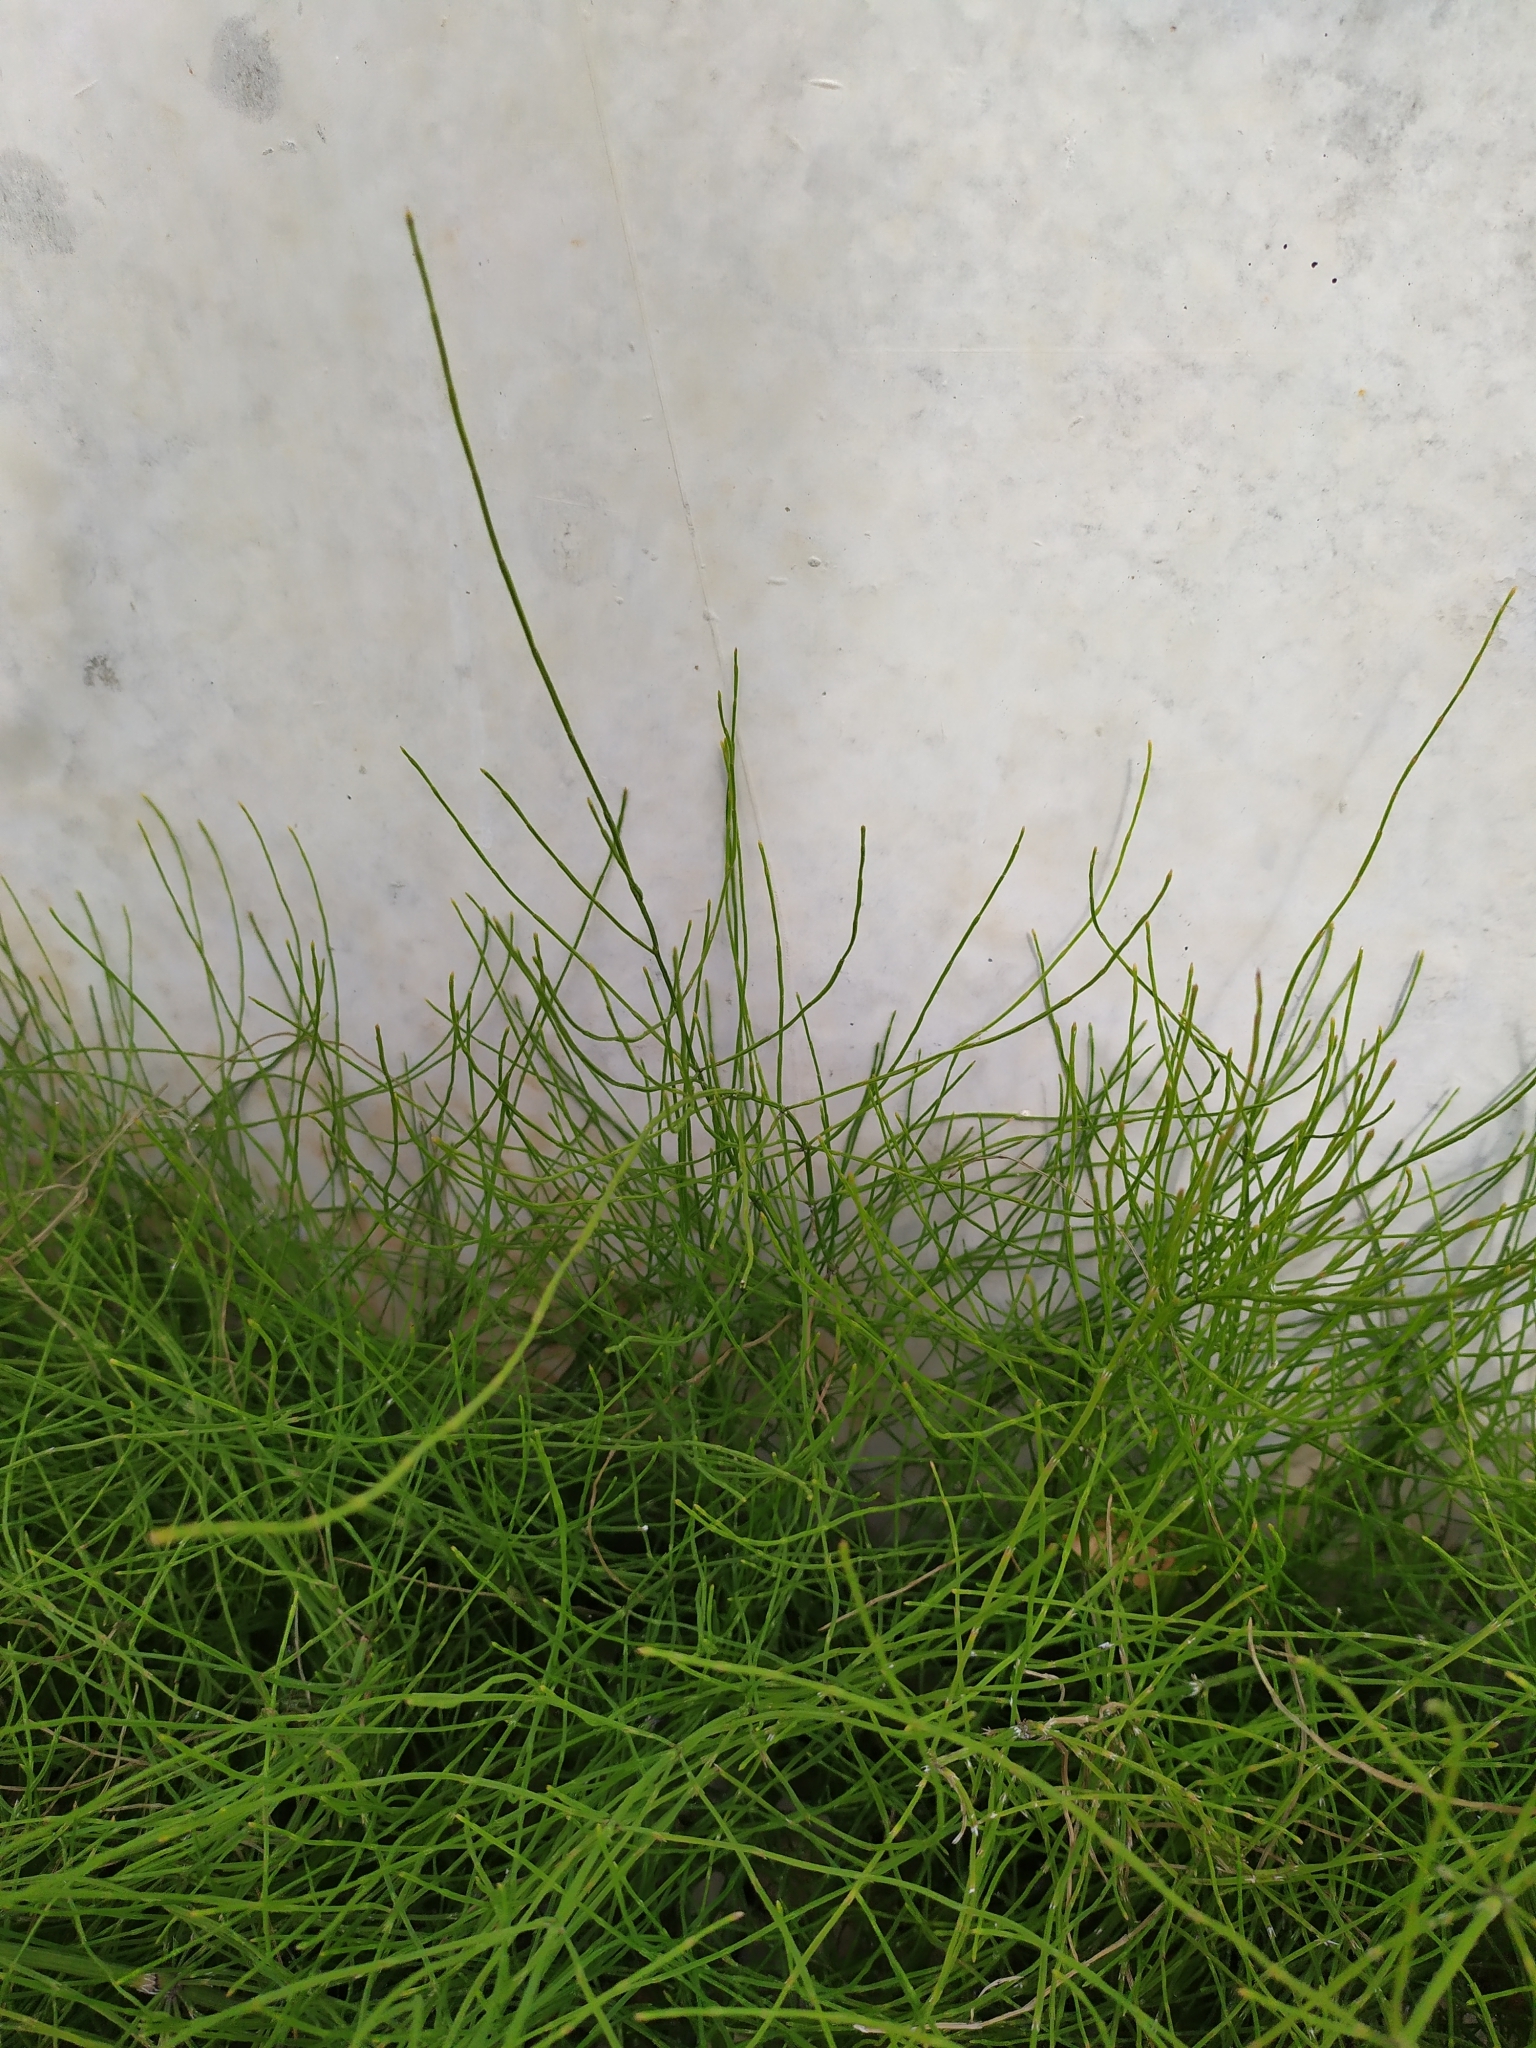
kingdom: Plantae
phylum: Tracheophyta
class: Polypodiopsida
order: Equisetales
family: Equisetaceae
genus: Equisetum
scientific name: Equisetum arvense
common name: Field horsetail
